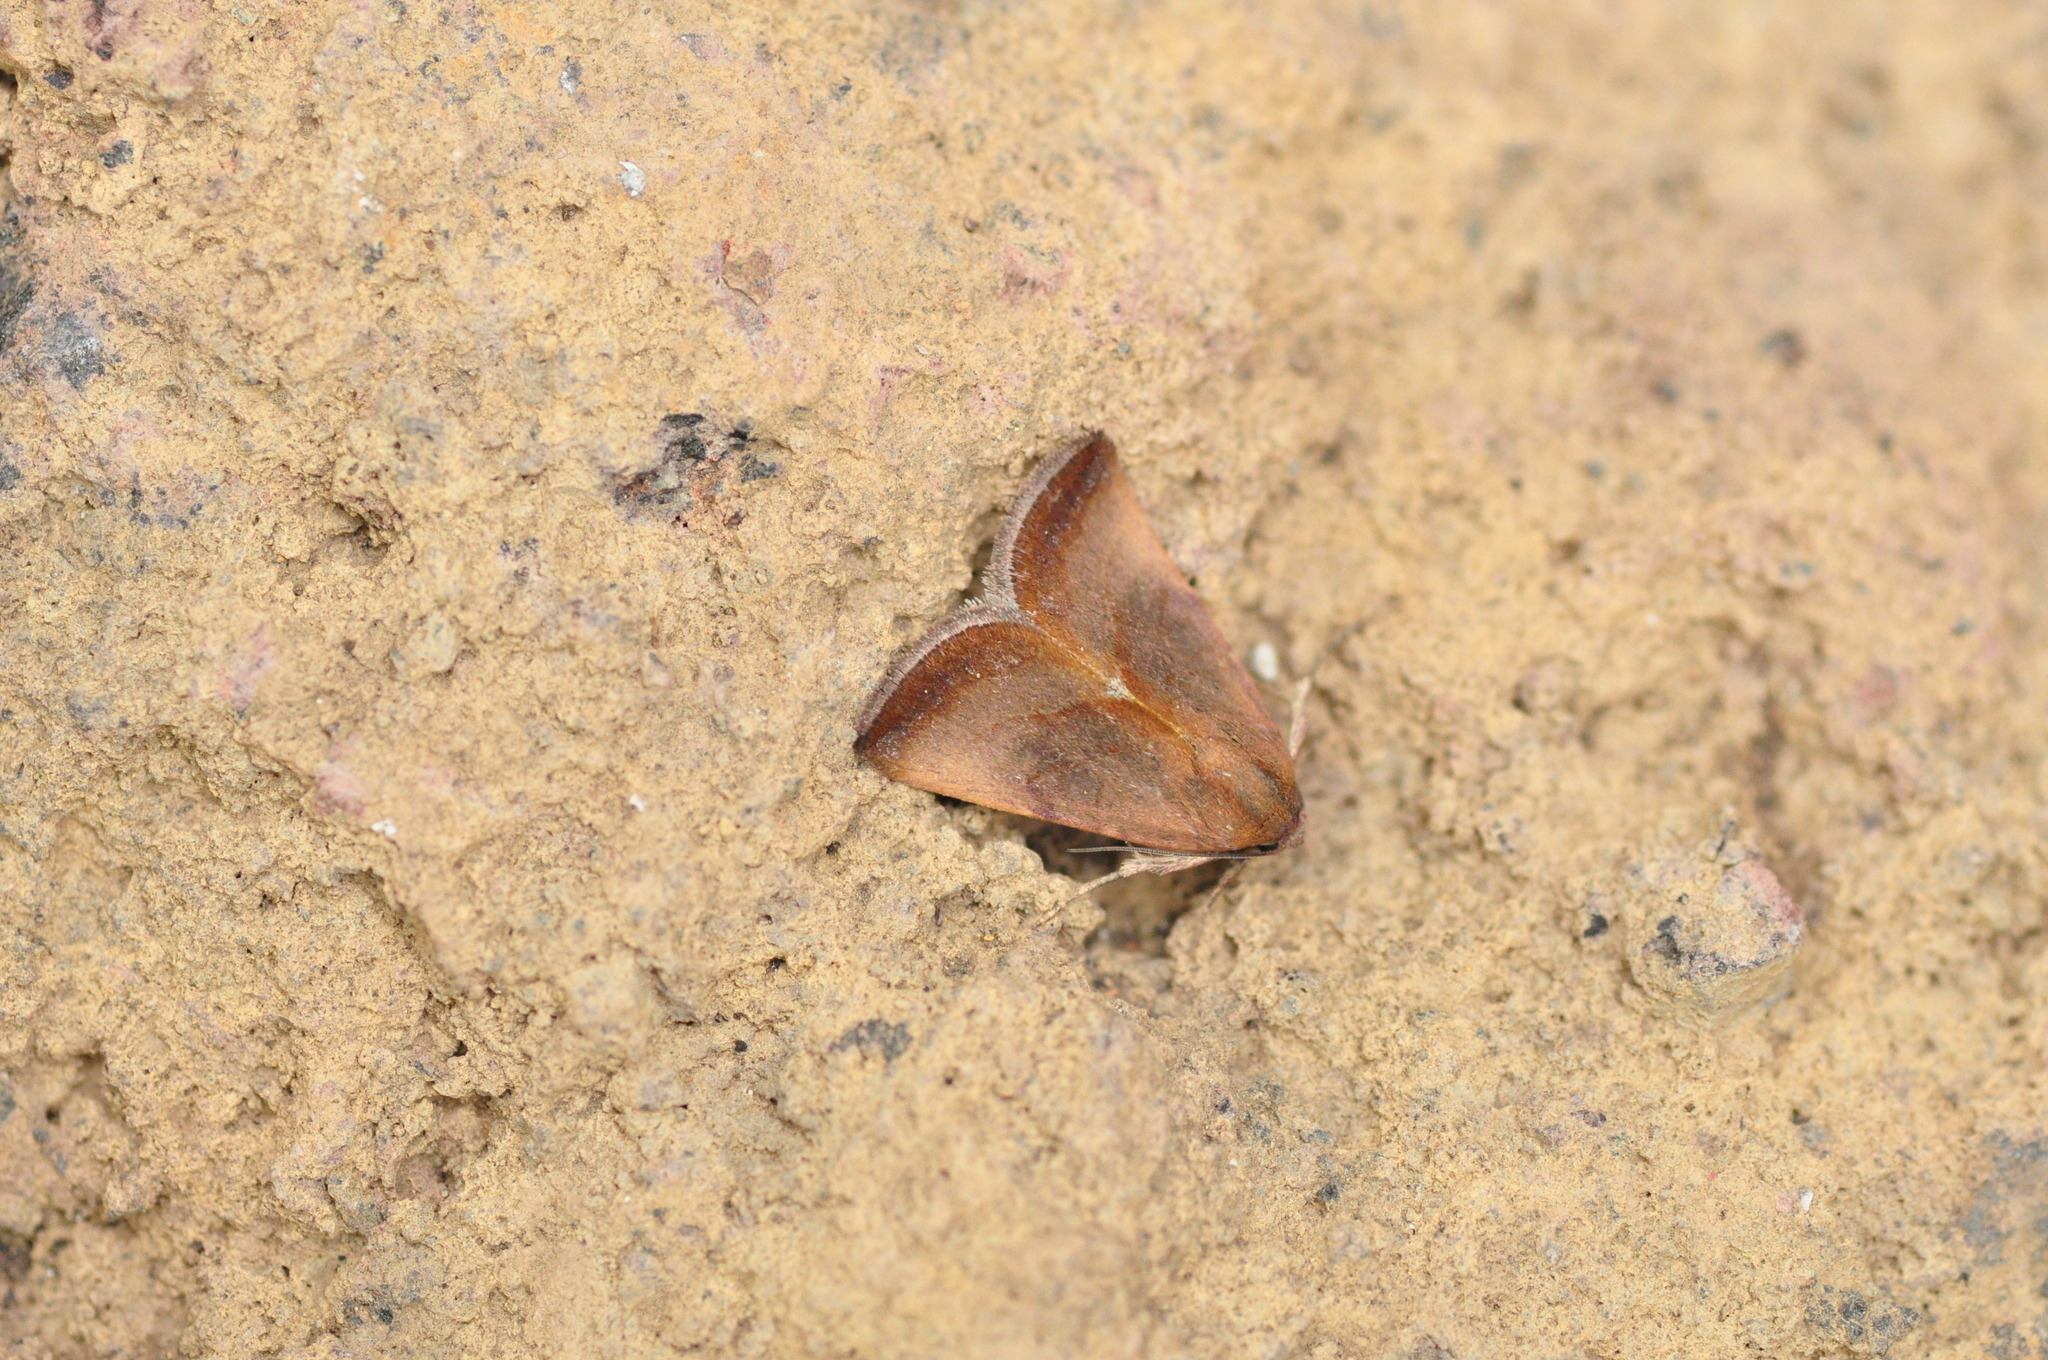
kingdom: Animalia
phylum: Arthropoda
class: Insecta
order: Lepidoptera
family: Noctuidae
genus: Galgula
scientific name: Galgula partita
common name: Wedgeling
